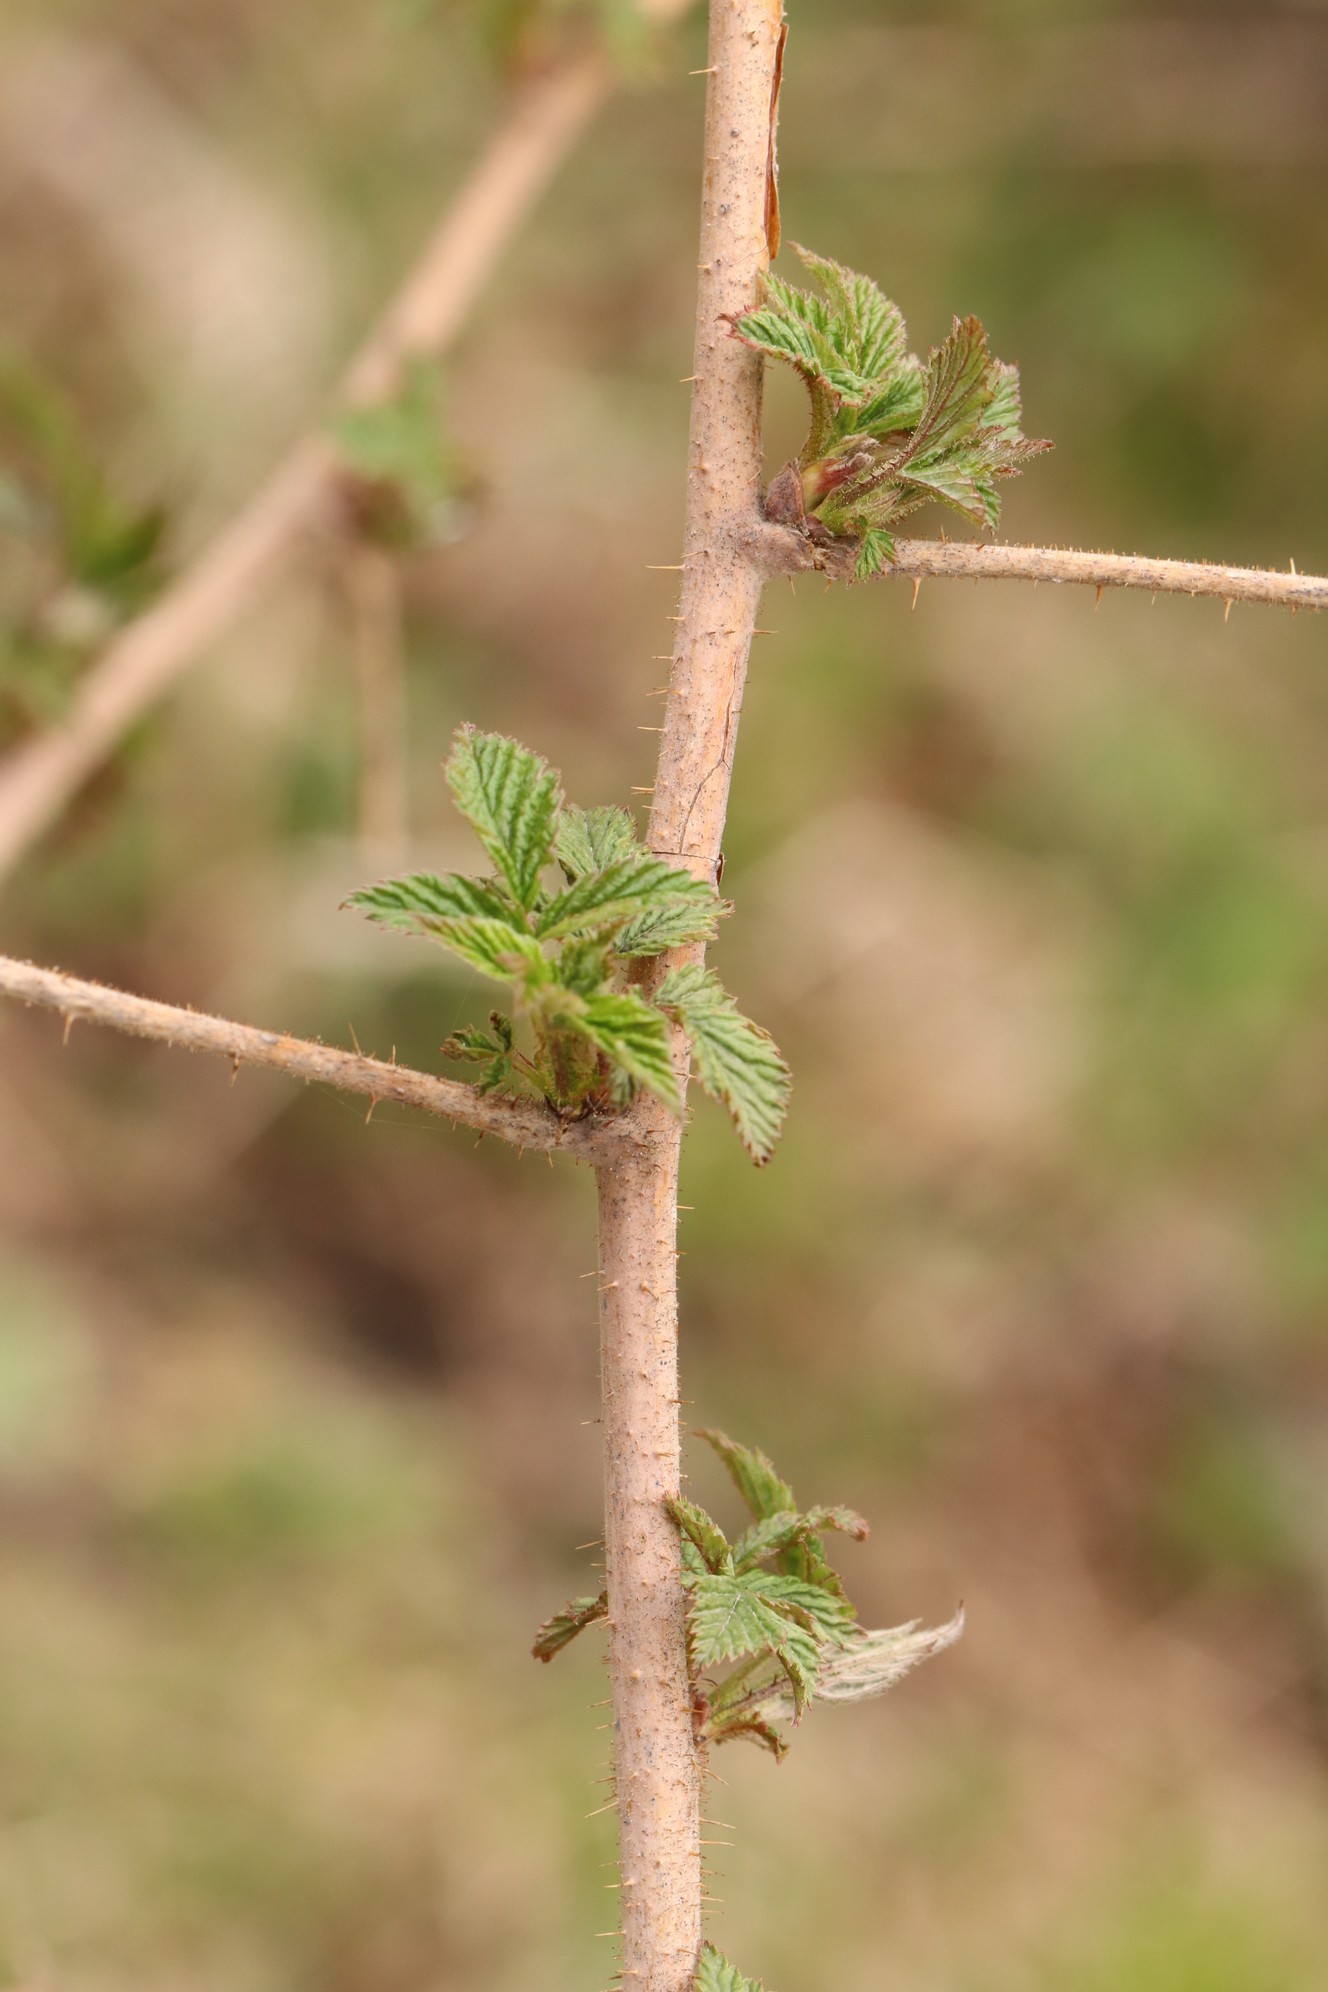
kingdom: Plantae
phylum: Tracheophyta
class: Magnoliopsida
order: Rosales
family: Rosaceae
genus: Rubus
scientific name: Rubus idaeus
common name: Raspberry
